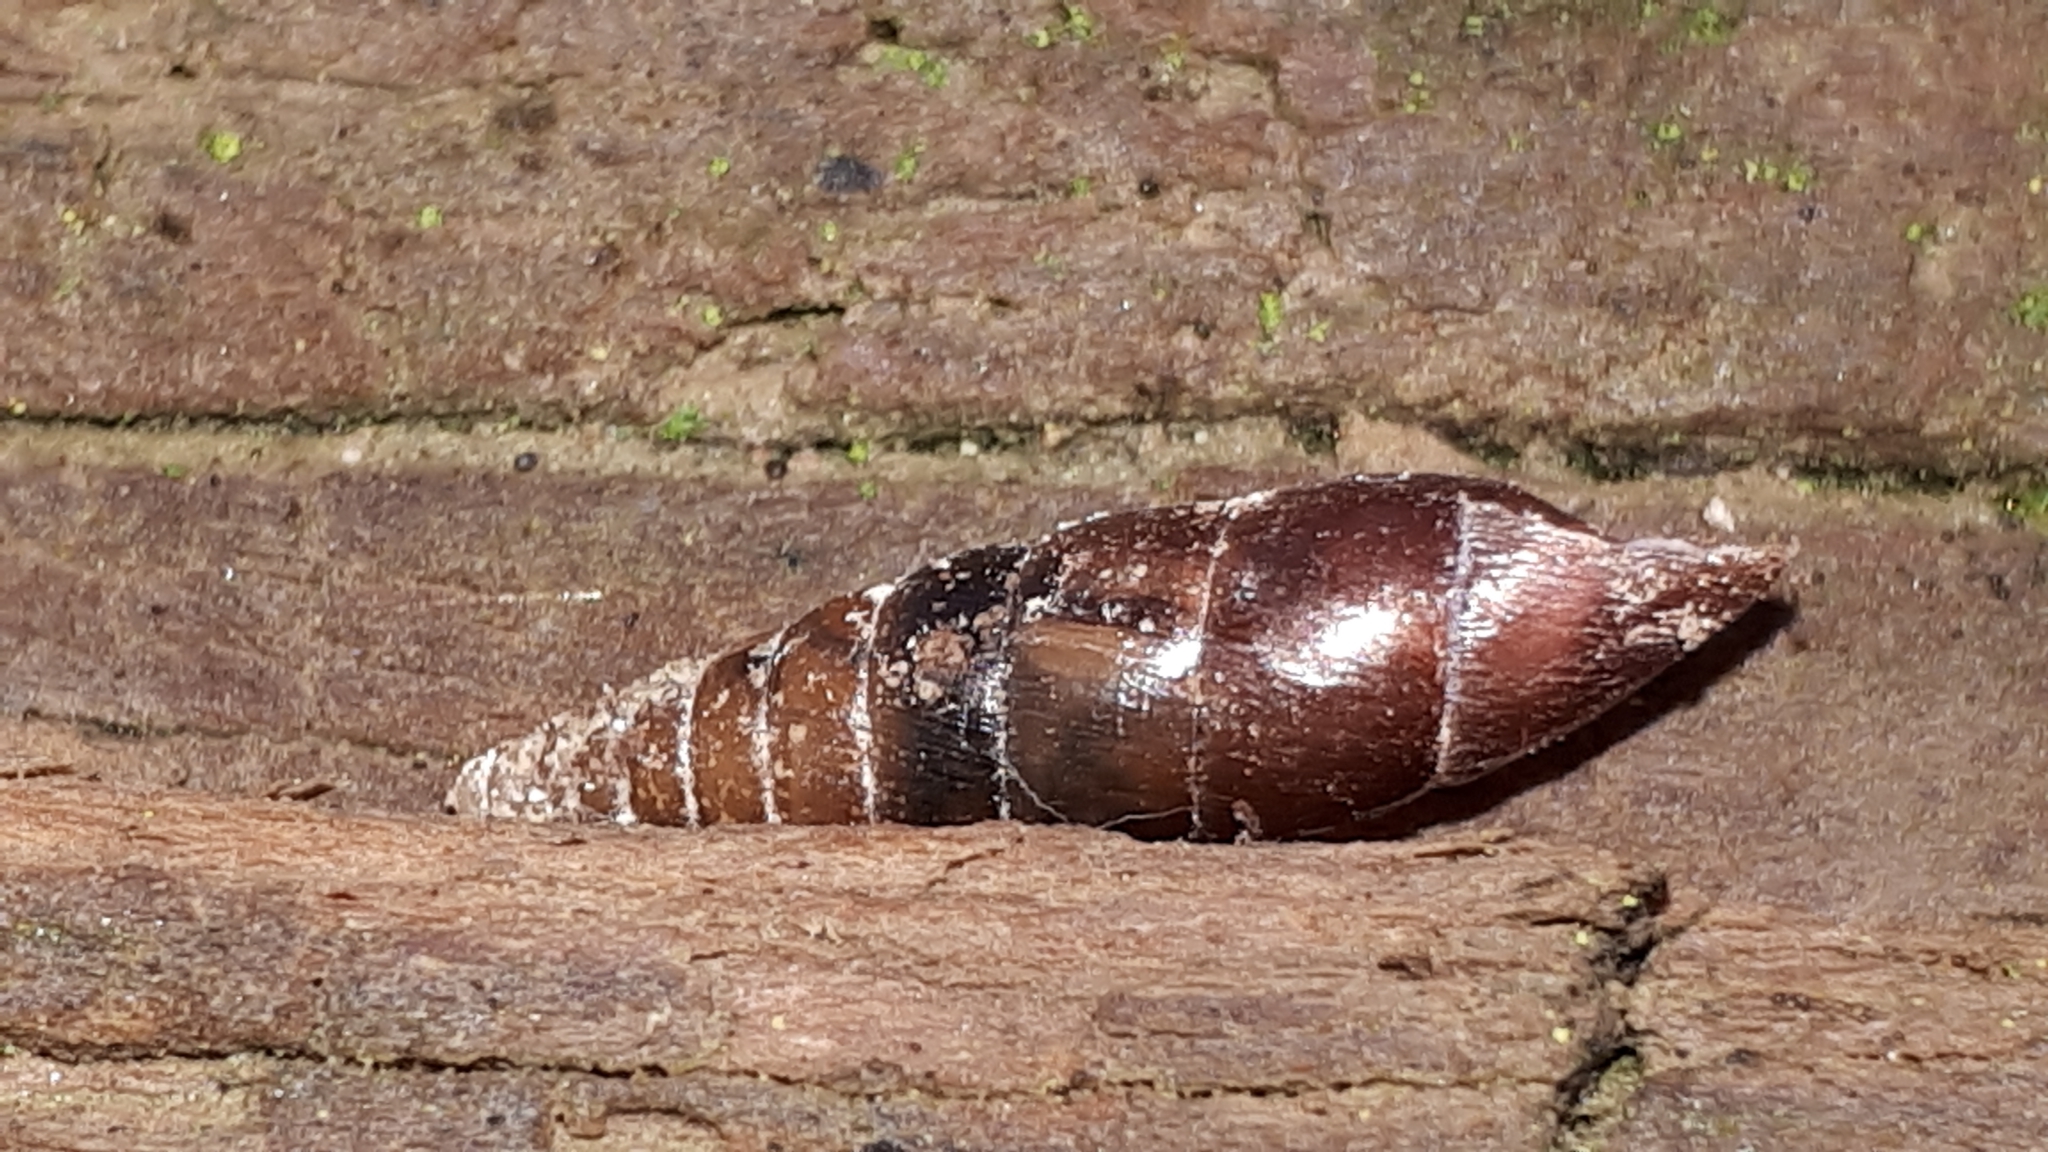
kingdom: Animalia
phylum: Mollusca
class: Gastropoda
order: Stylommatophora
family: Clausiliidae
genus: Cochlodina
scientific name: Cochlodina laminata
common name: Plaited door snail
